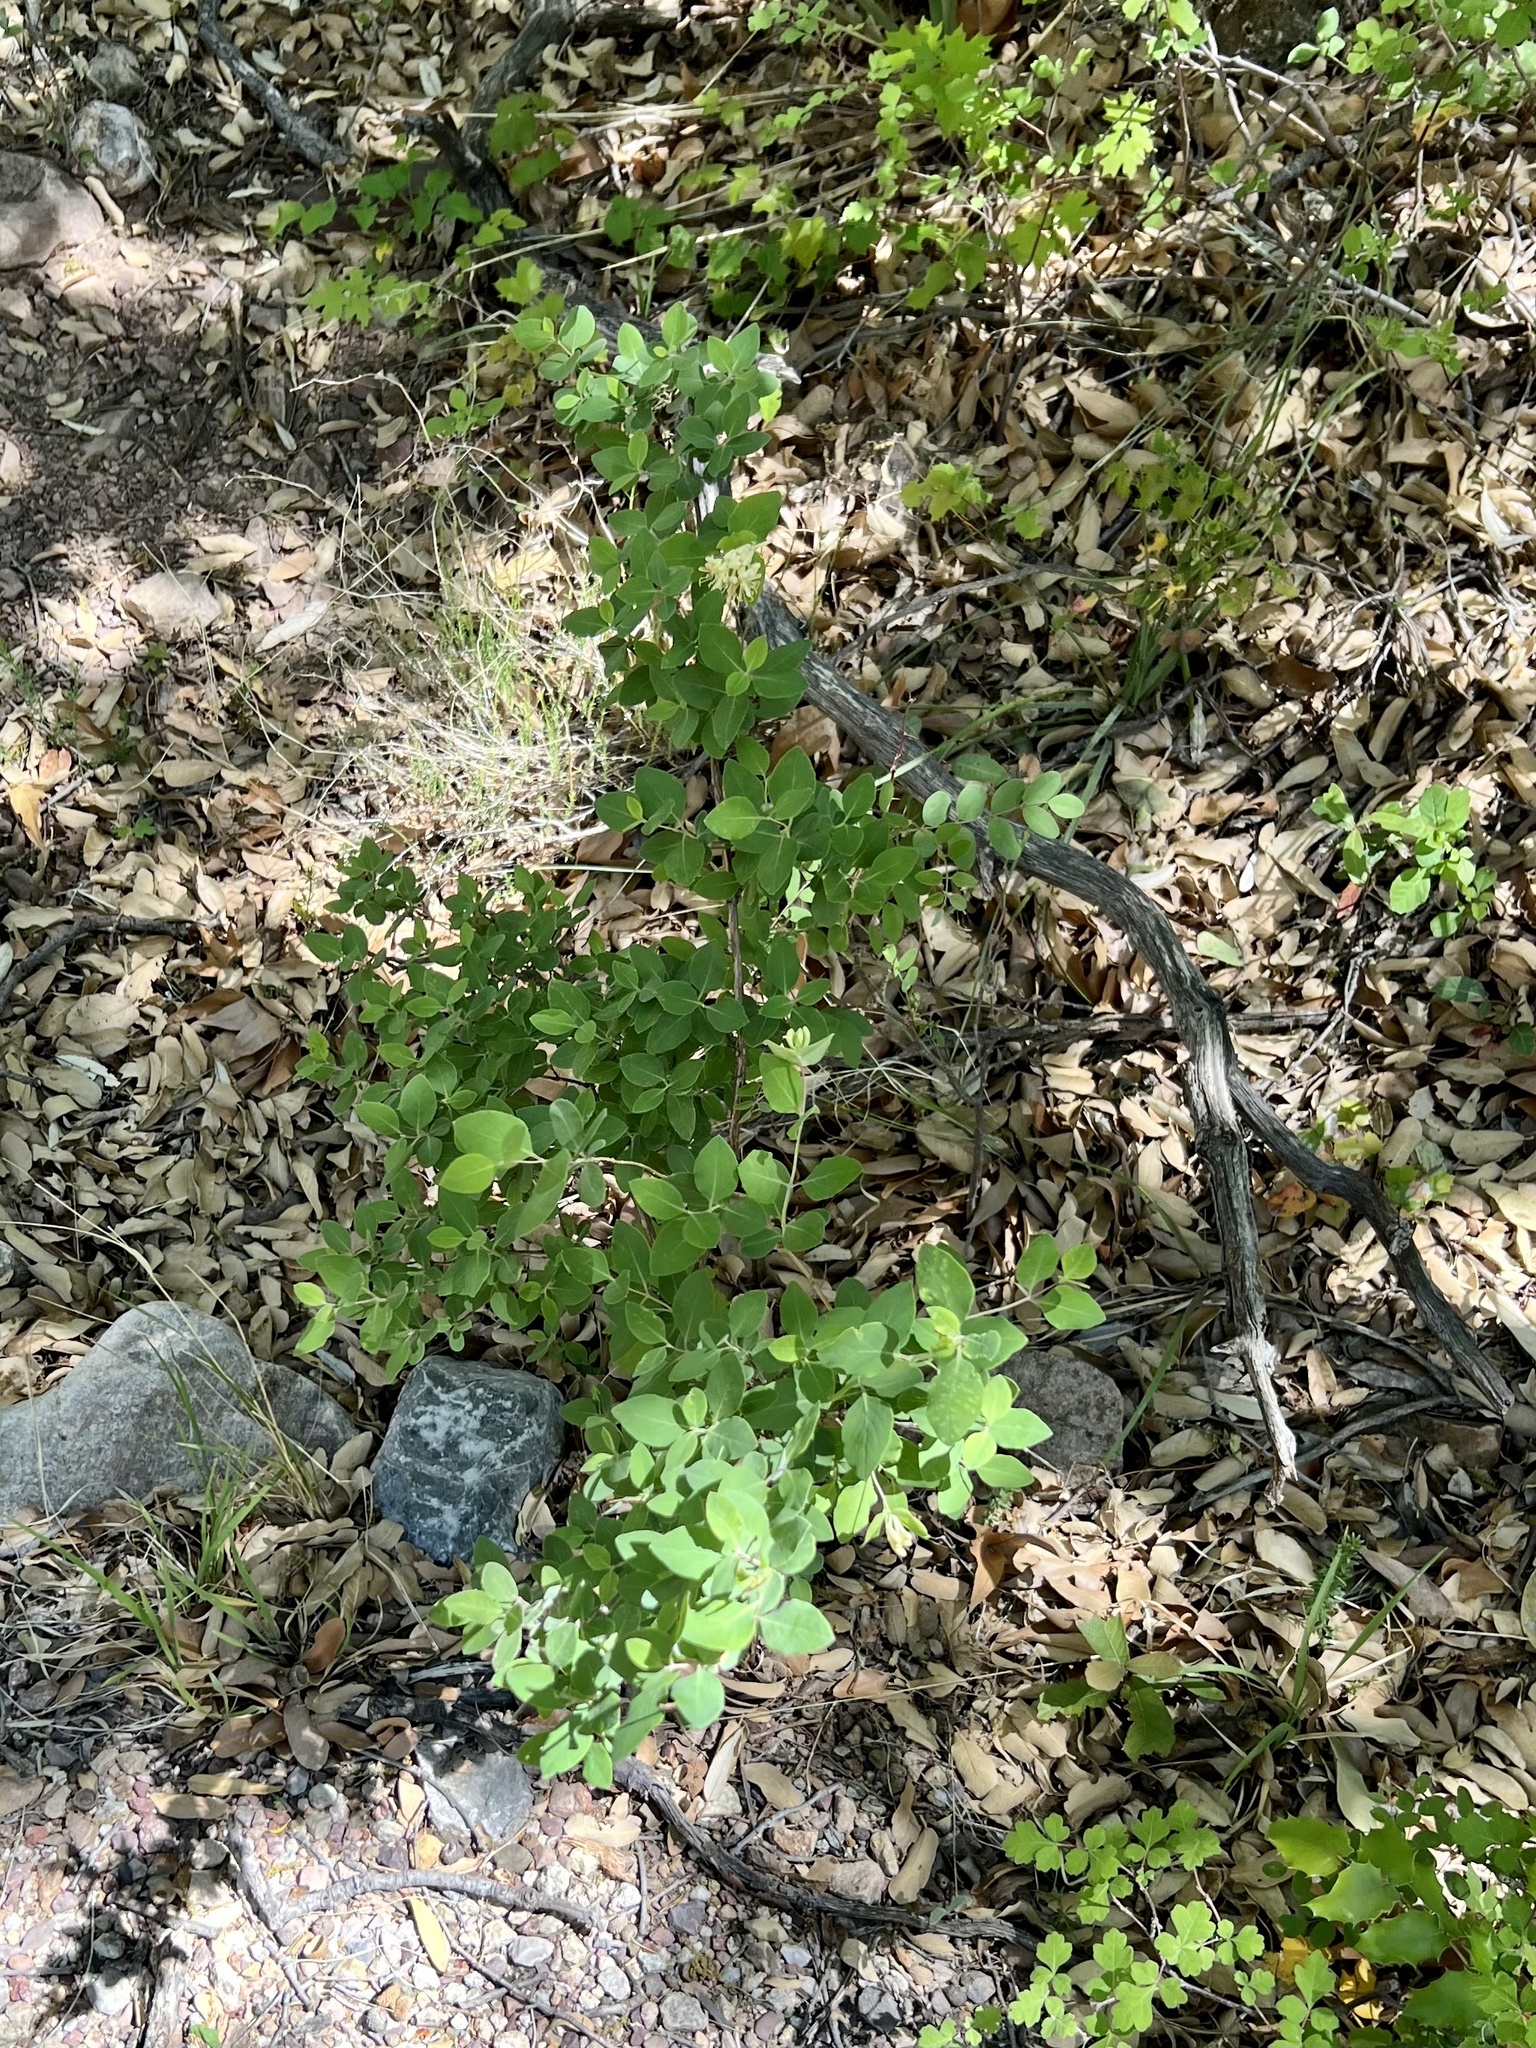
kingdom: Plantae
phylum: Tracheophyta
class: Magnoliopsida
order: Dipsacales
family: Caprifoliaceae
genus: Lonicera
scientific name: Lonicera albiflora
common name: White honeysuckle
